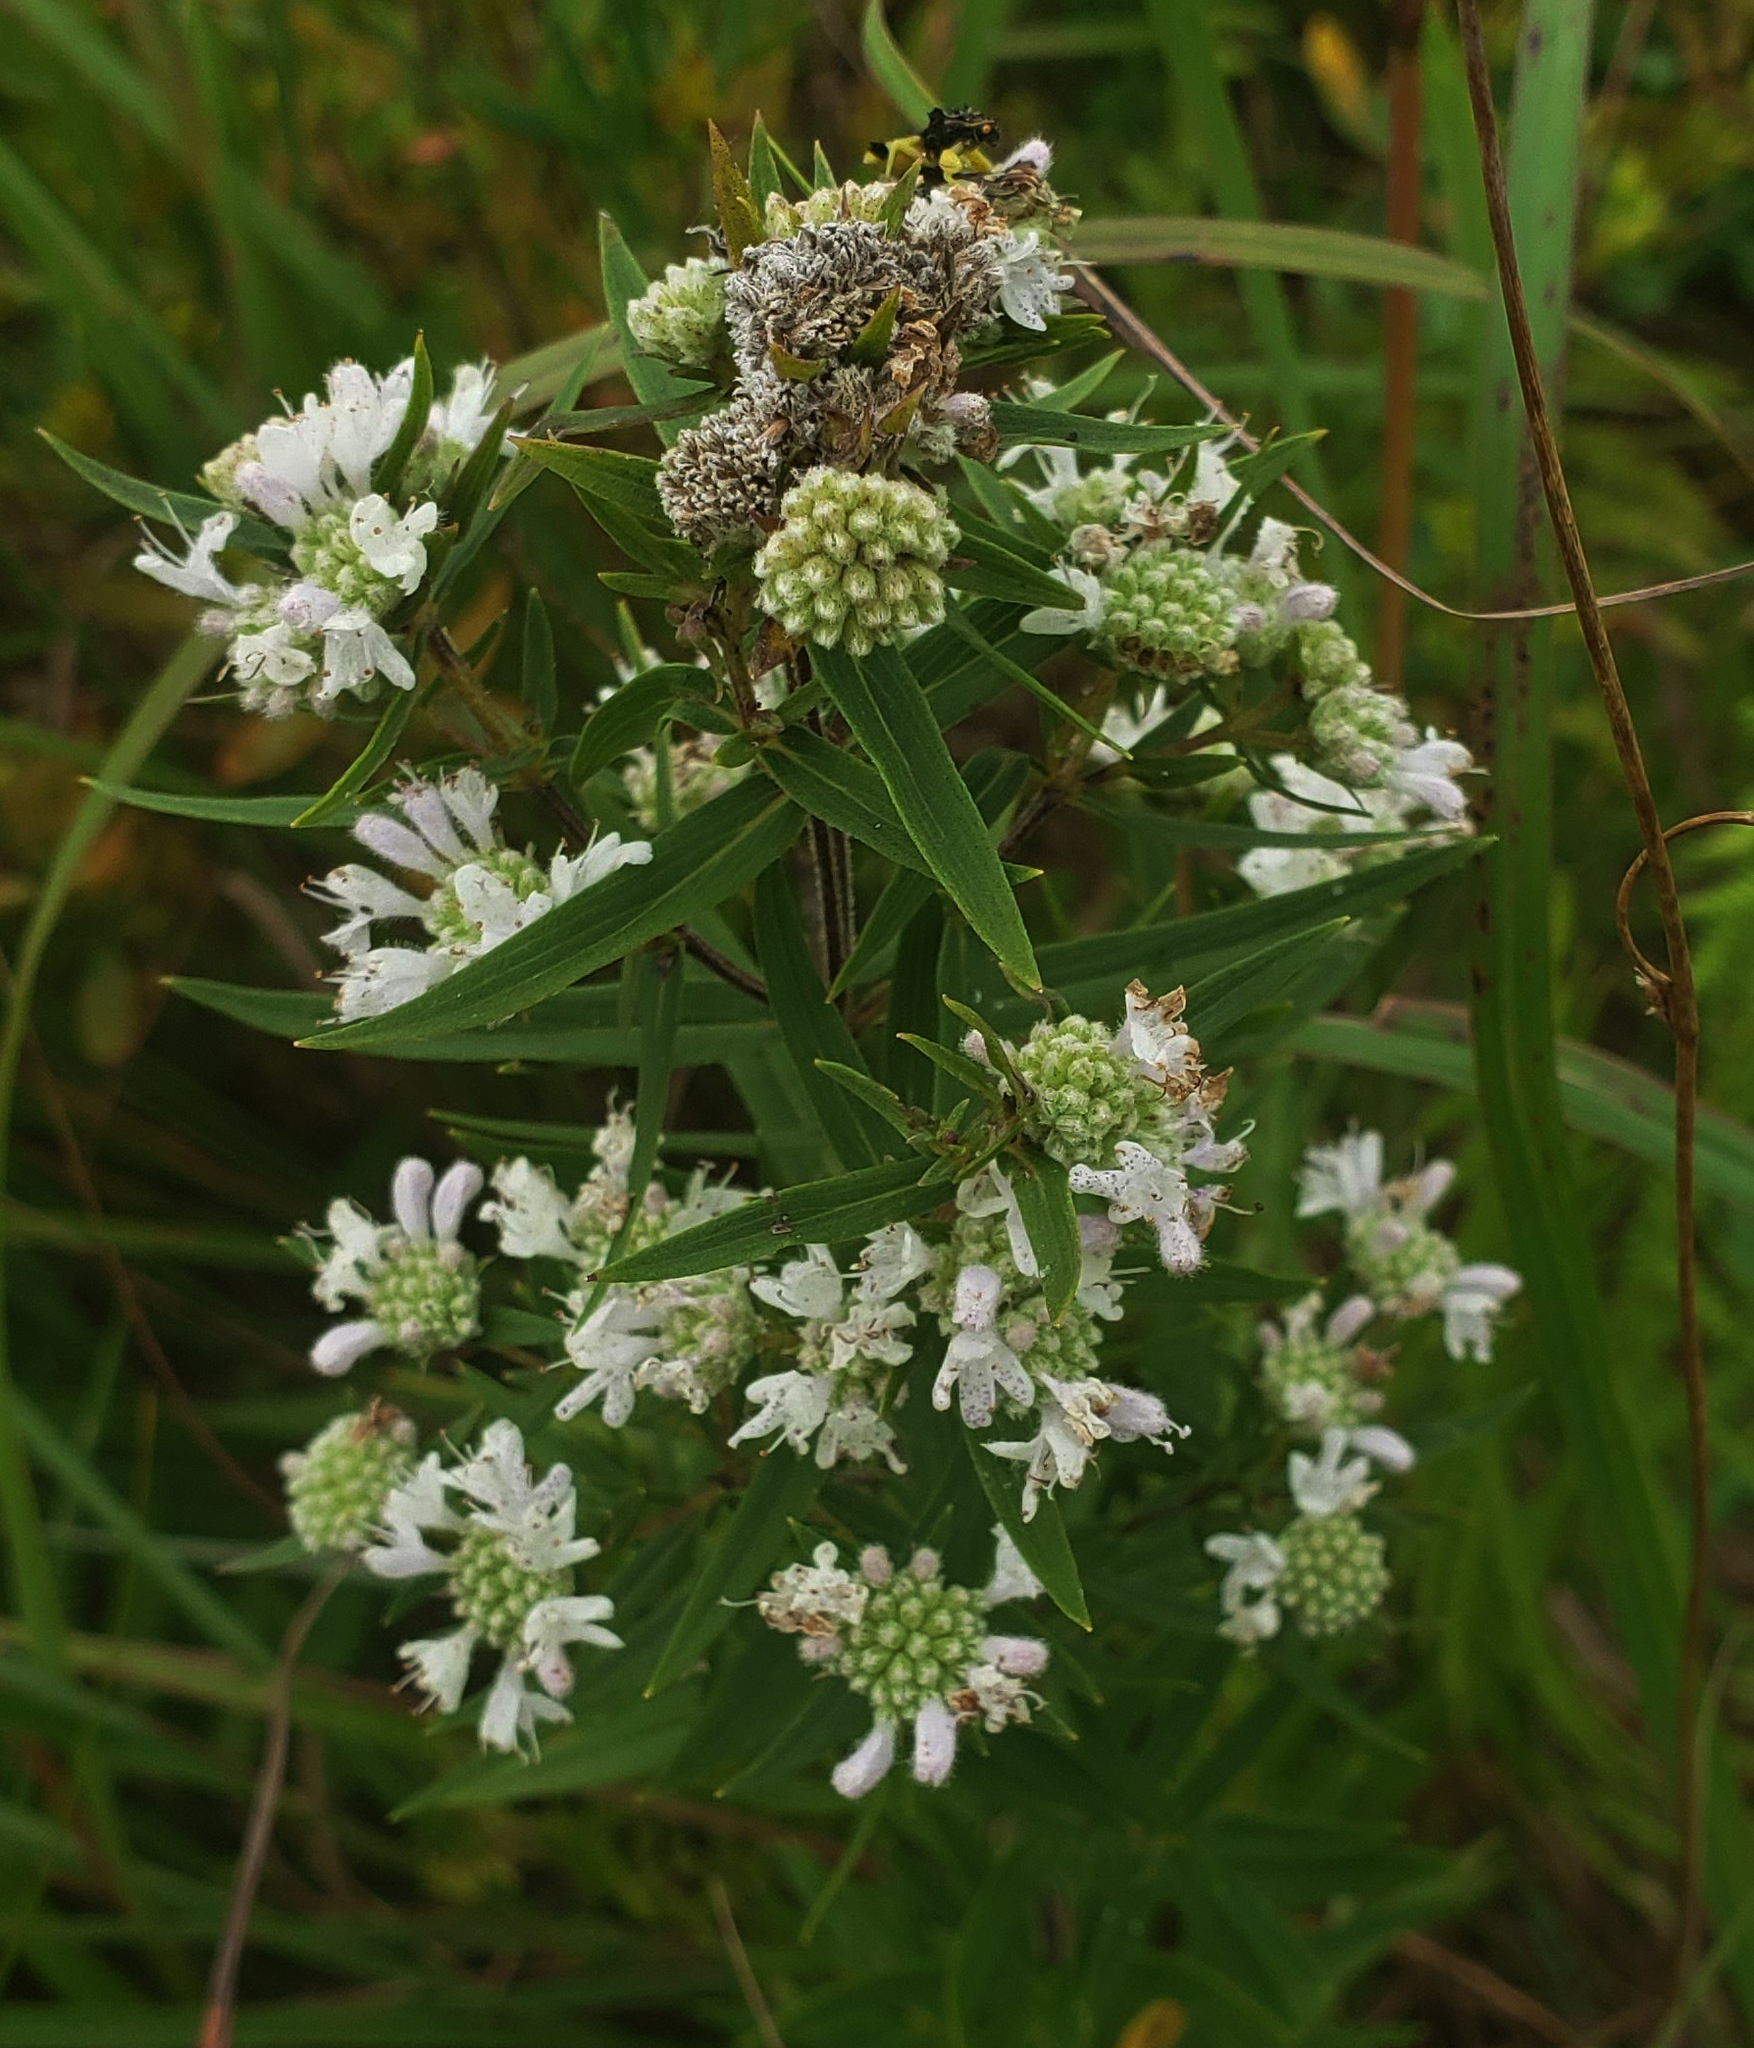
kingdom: Plantae
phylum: Tracheophyta
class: Magnoliopsida
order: Lamiales
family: Lamiaceae
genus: Pycnanthemum
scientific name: Pycnanthemum virginianum
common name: Virginia mountain-mint
